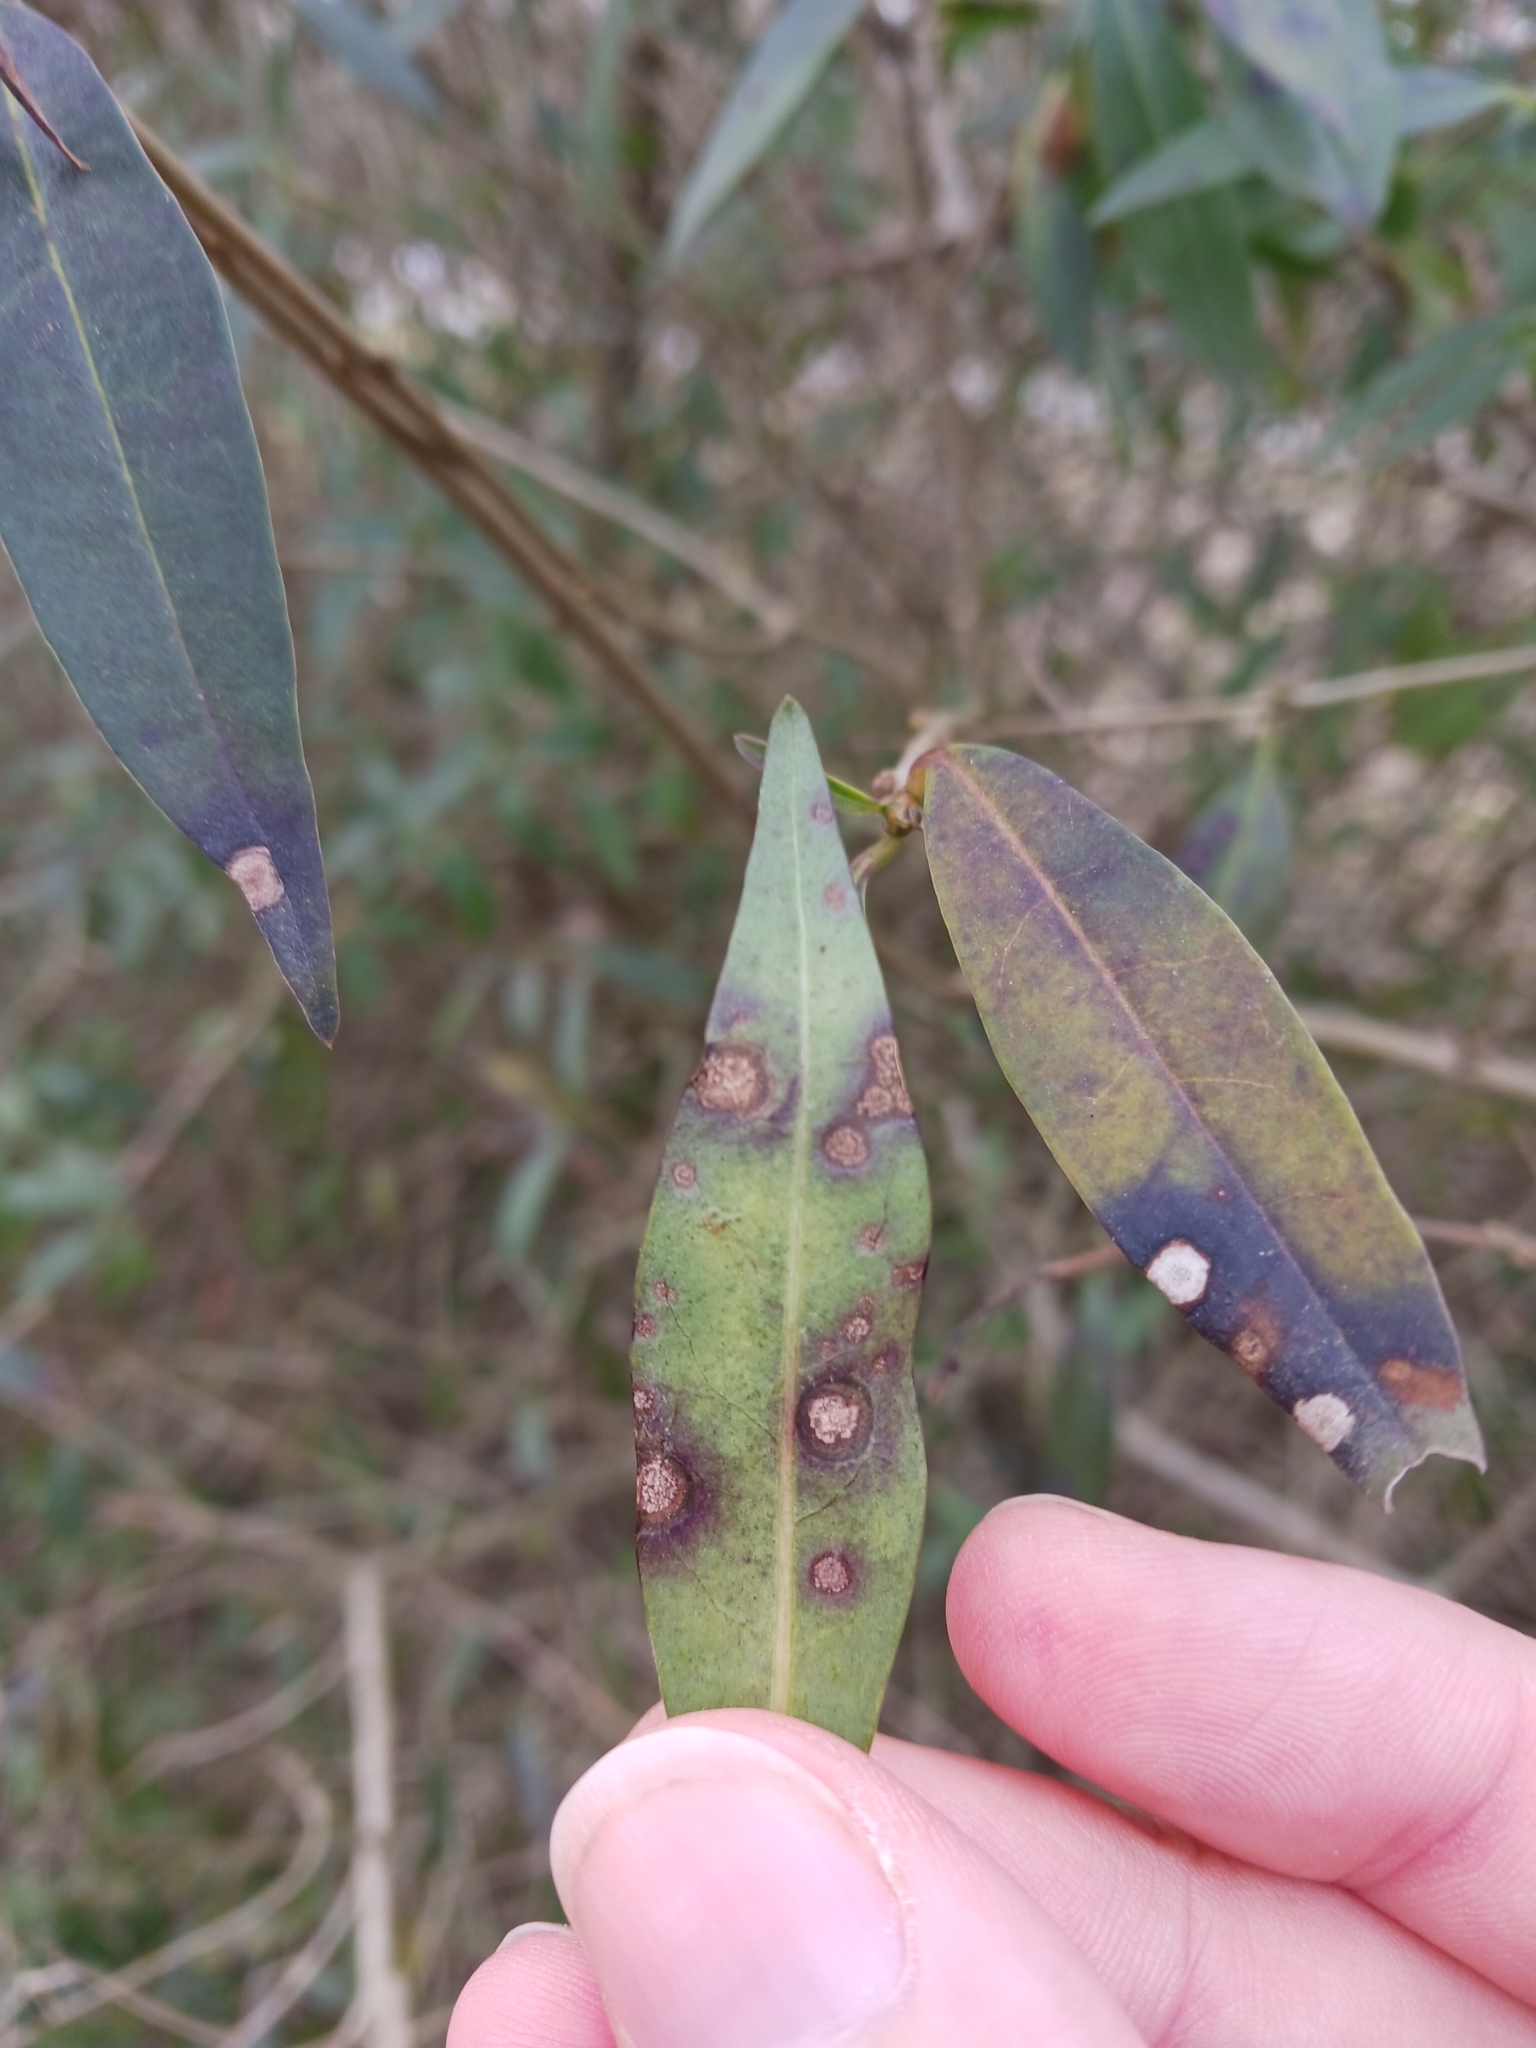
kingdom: Fungi
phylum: Ascomycota
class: Leotiomycetes
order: Helotiales
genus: Thedgonia
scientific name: Thedgonia ligustrina
